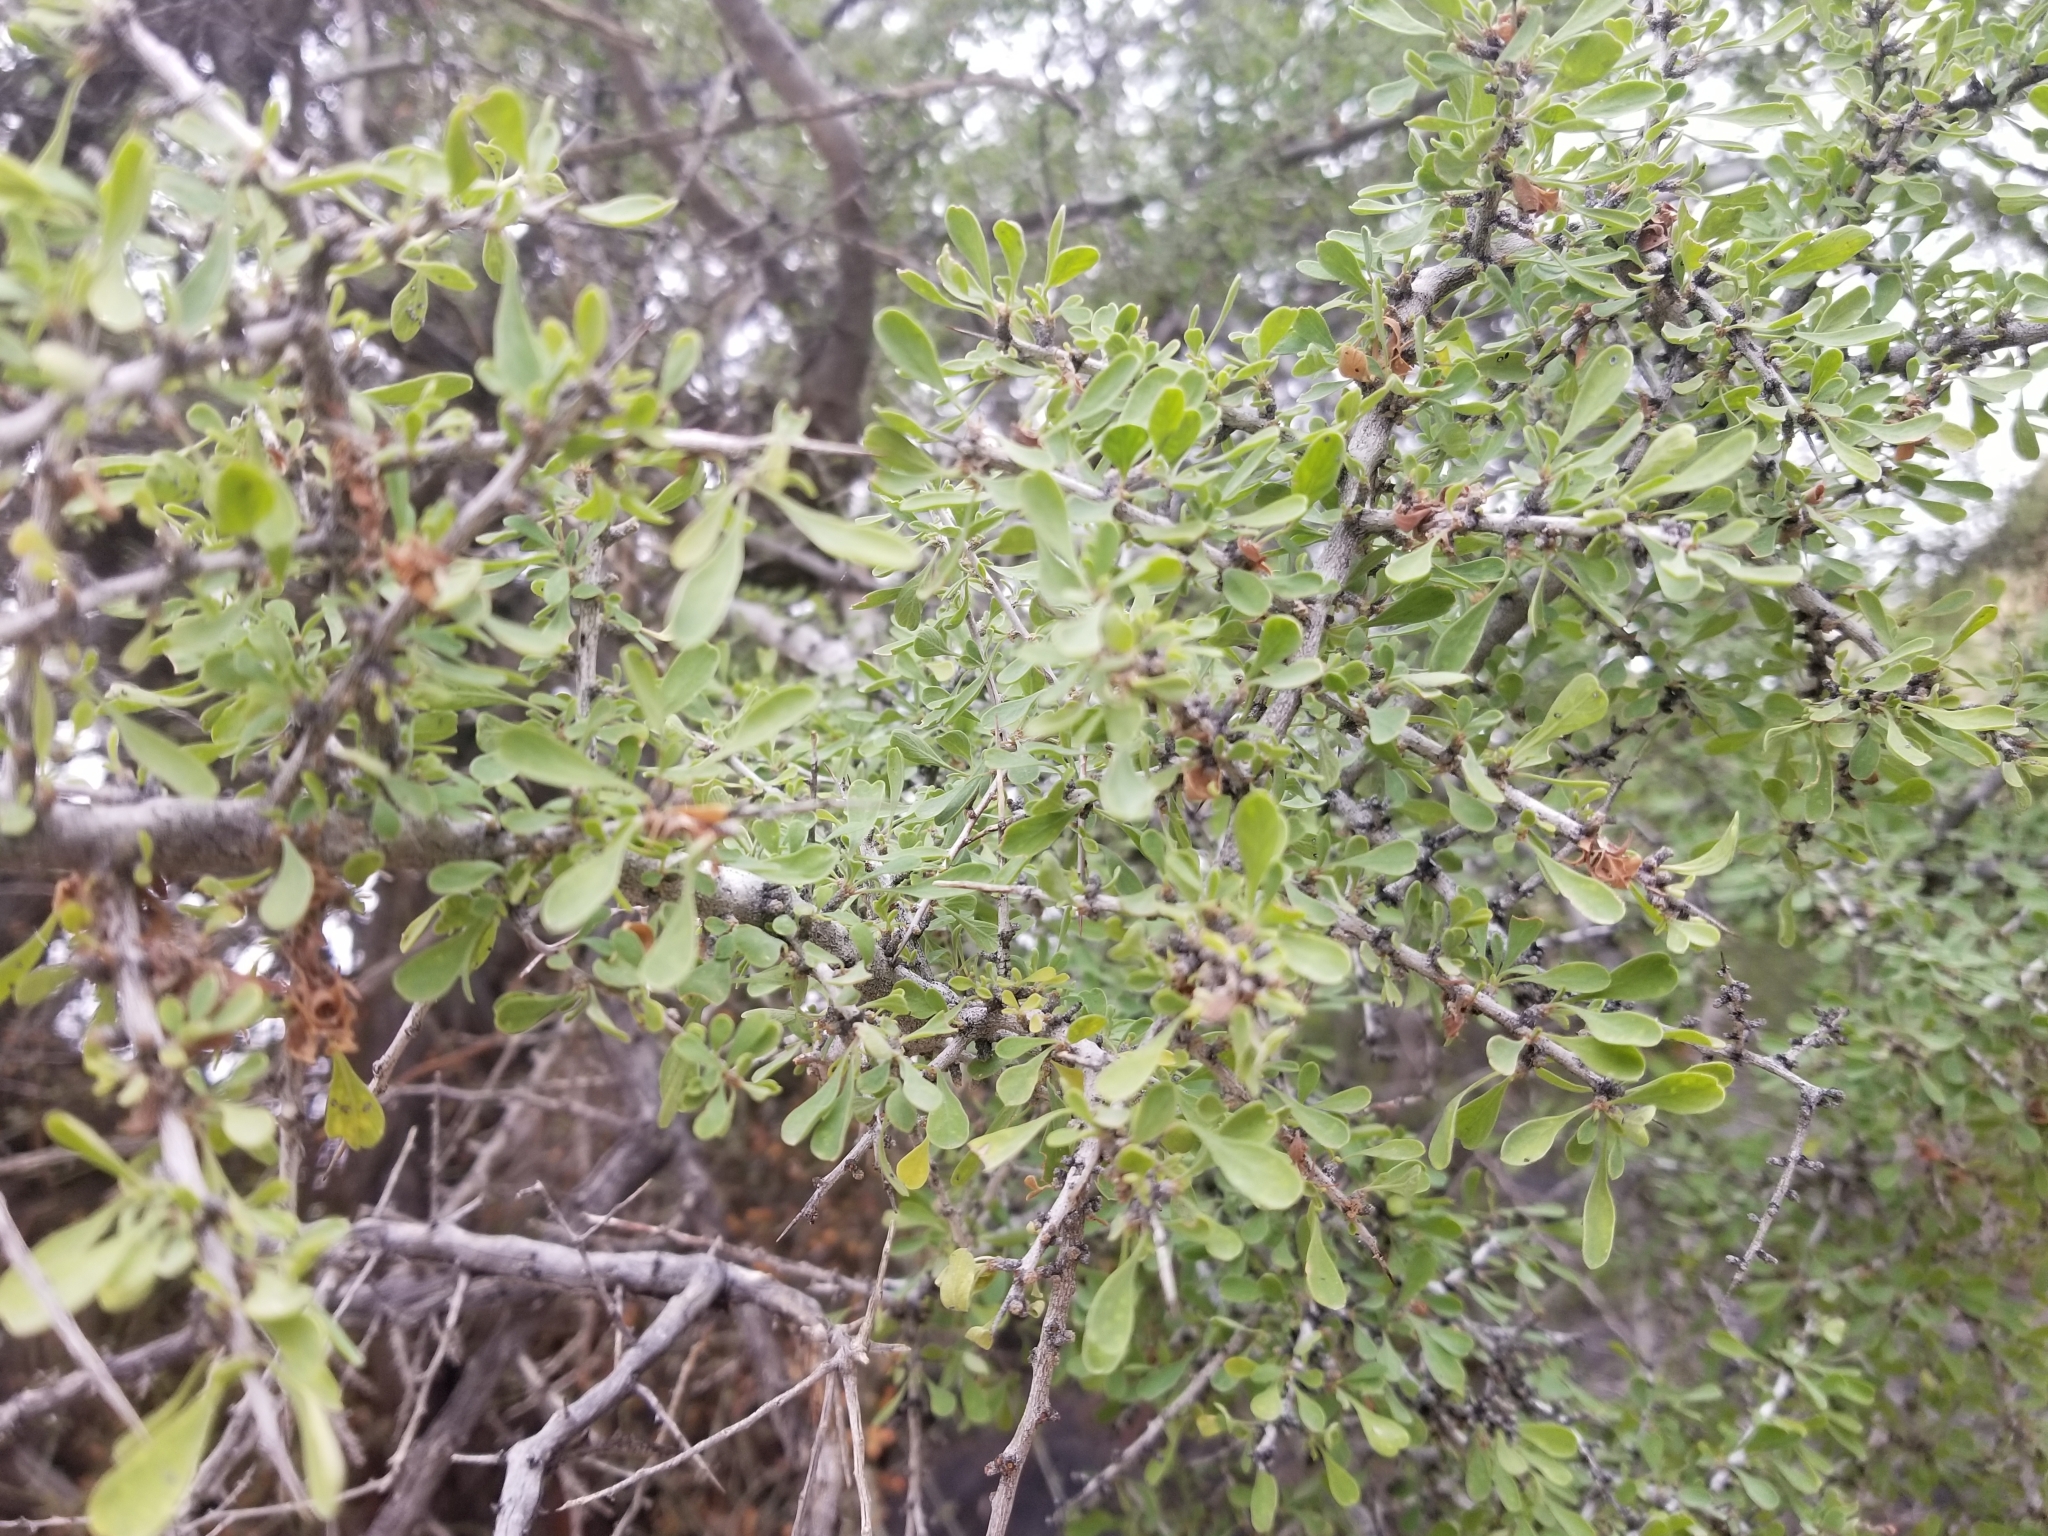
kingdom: Plantae
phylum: Tracheophyta
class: Magnoliopsida
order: Rosales
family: Rhamnaceae
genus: Condalia
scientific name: Condalia globosa
